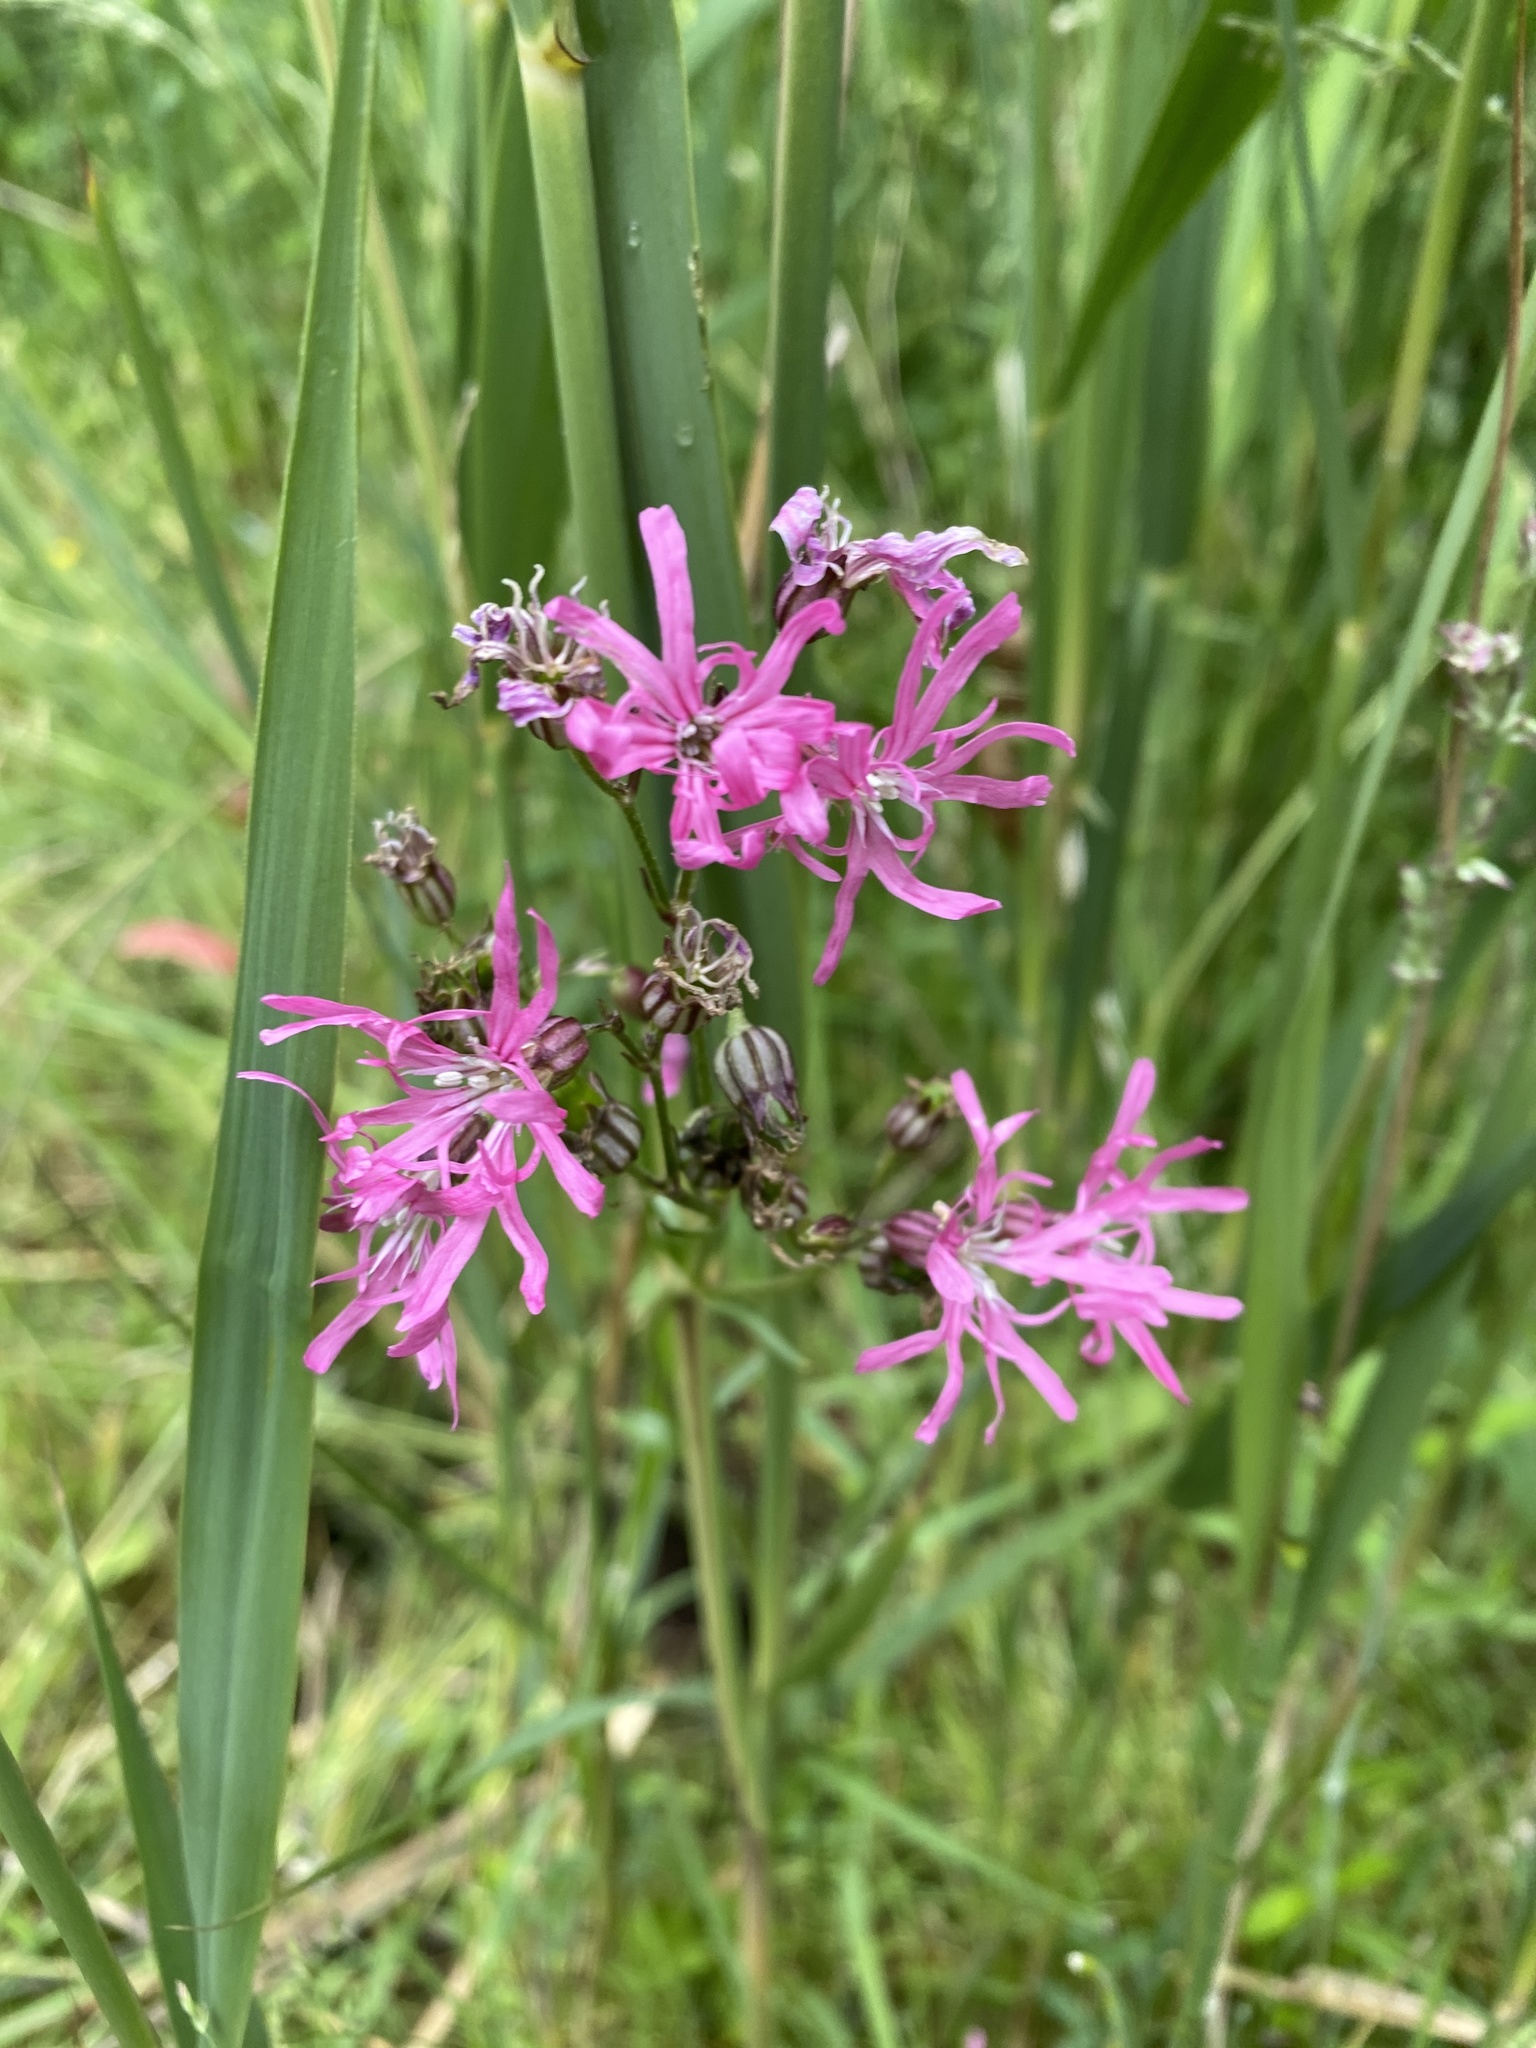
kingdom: Plantae
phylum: Tracheophyta
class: Magnoliopsida
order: Caryophyllales
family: Caryophyllaceae
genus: Silene
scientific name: Silene flos-cuculi
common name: Ragged-robin
